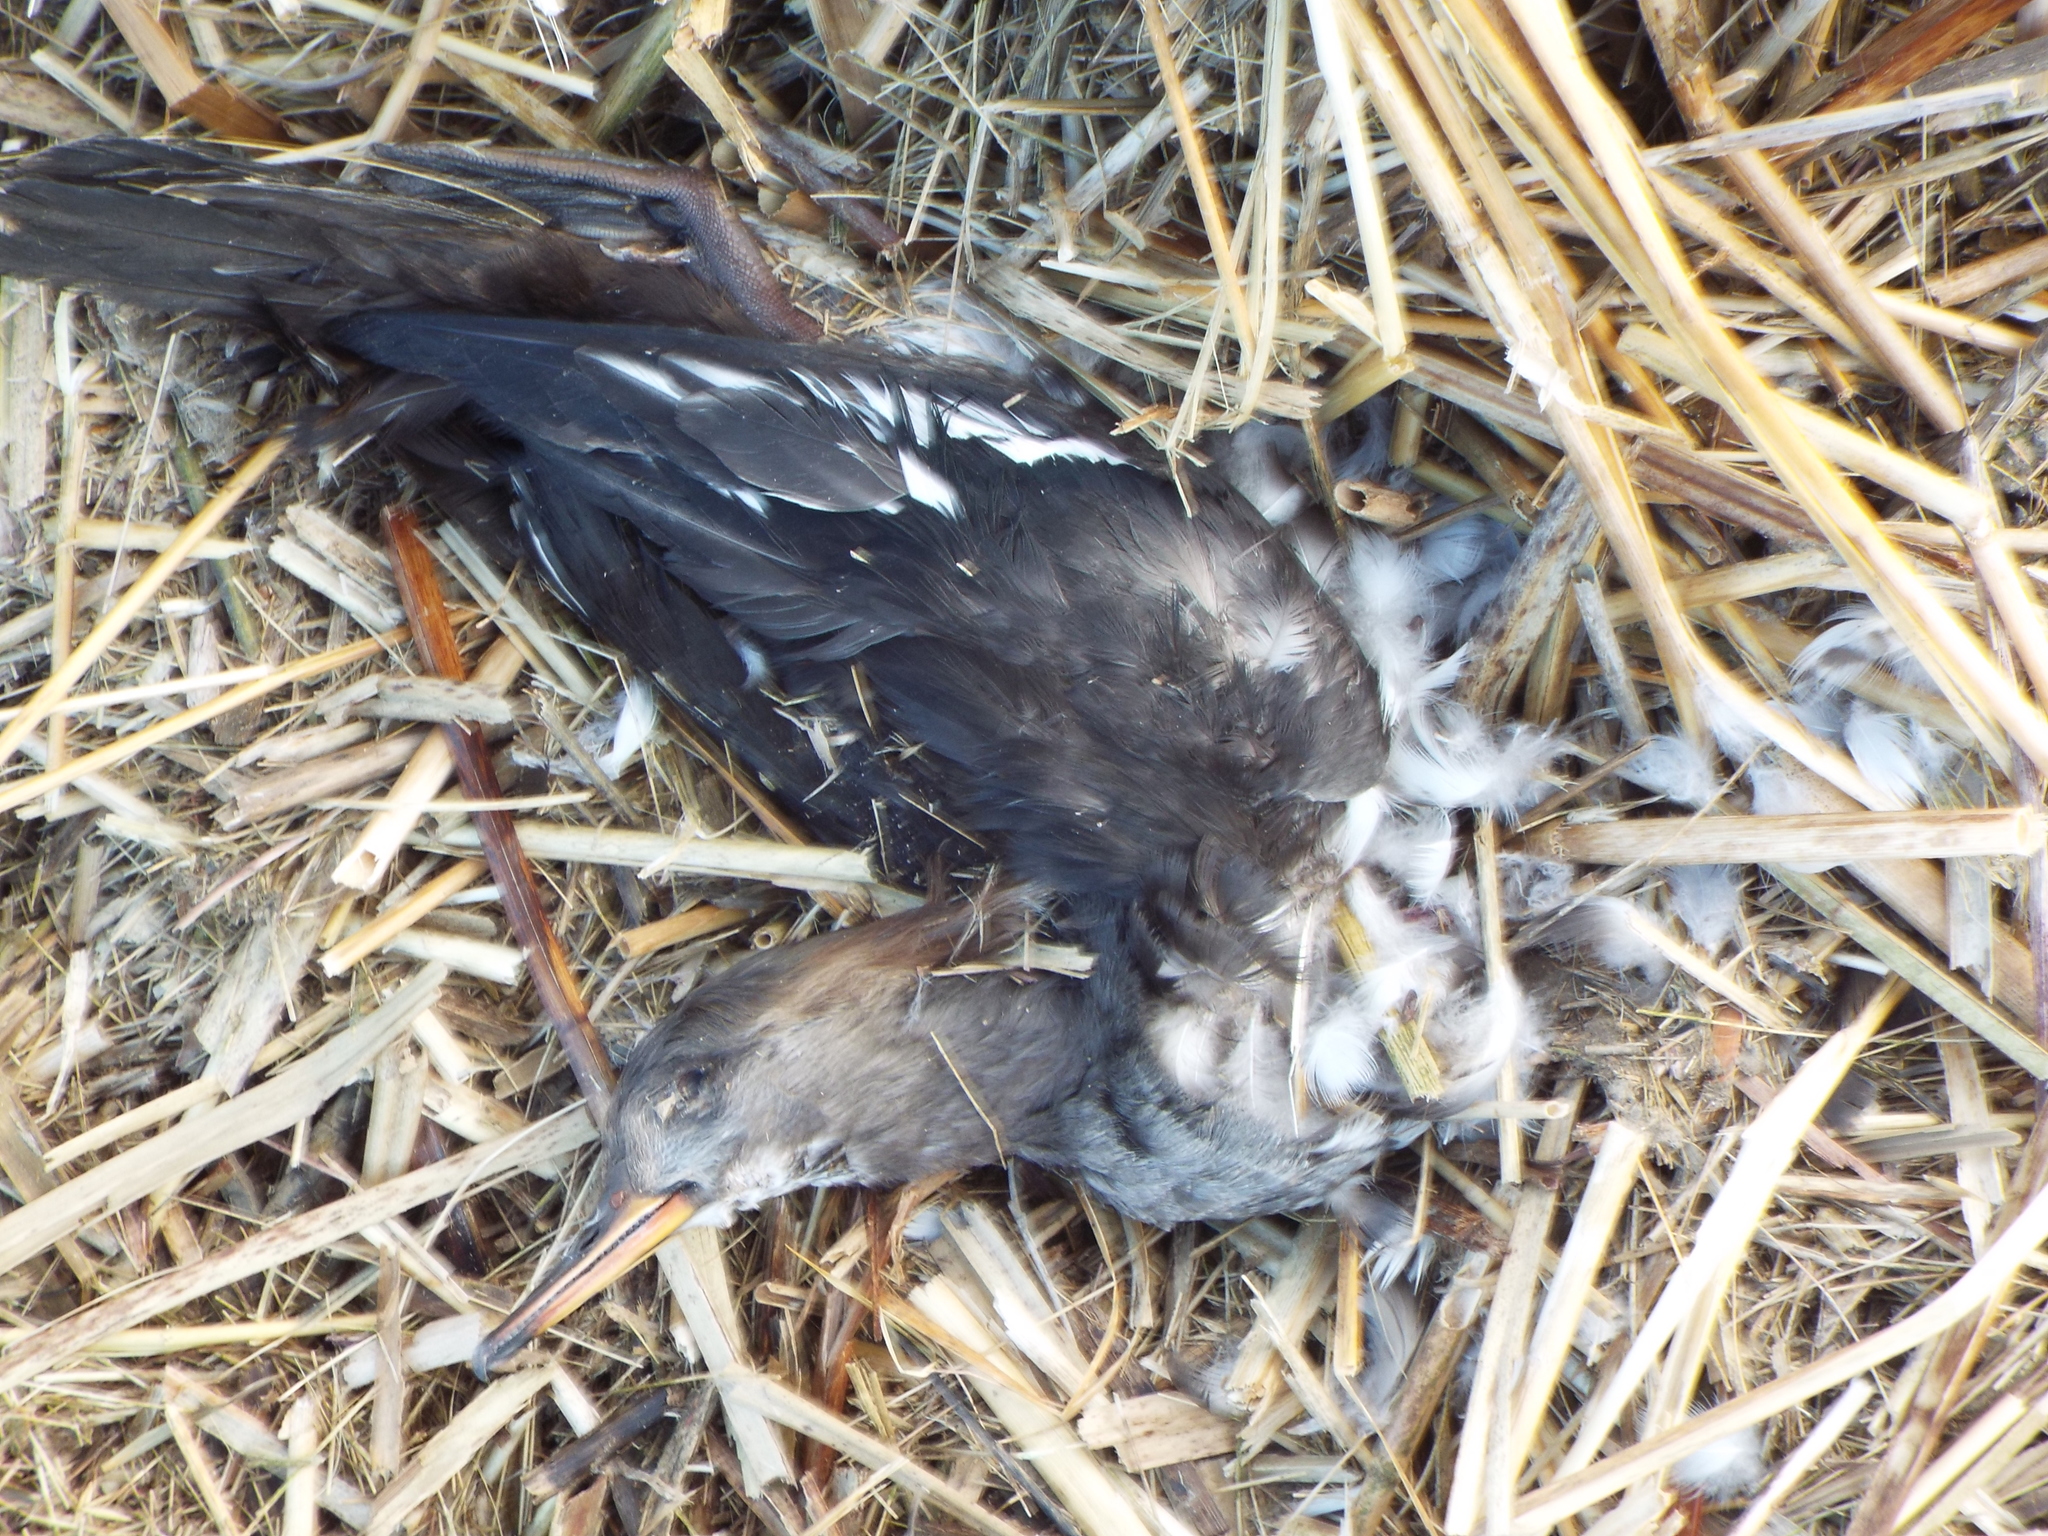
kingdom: Animalia
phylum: Chordata
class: Aves
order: Anseriformes
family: Anatidae
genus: Lophodytes
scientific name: Lophodytes cucullatus
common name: Hooded merganser
